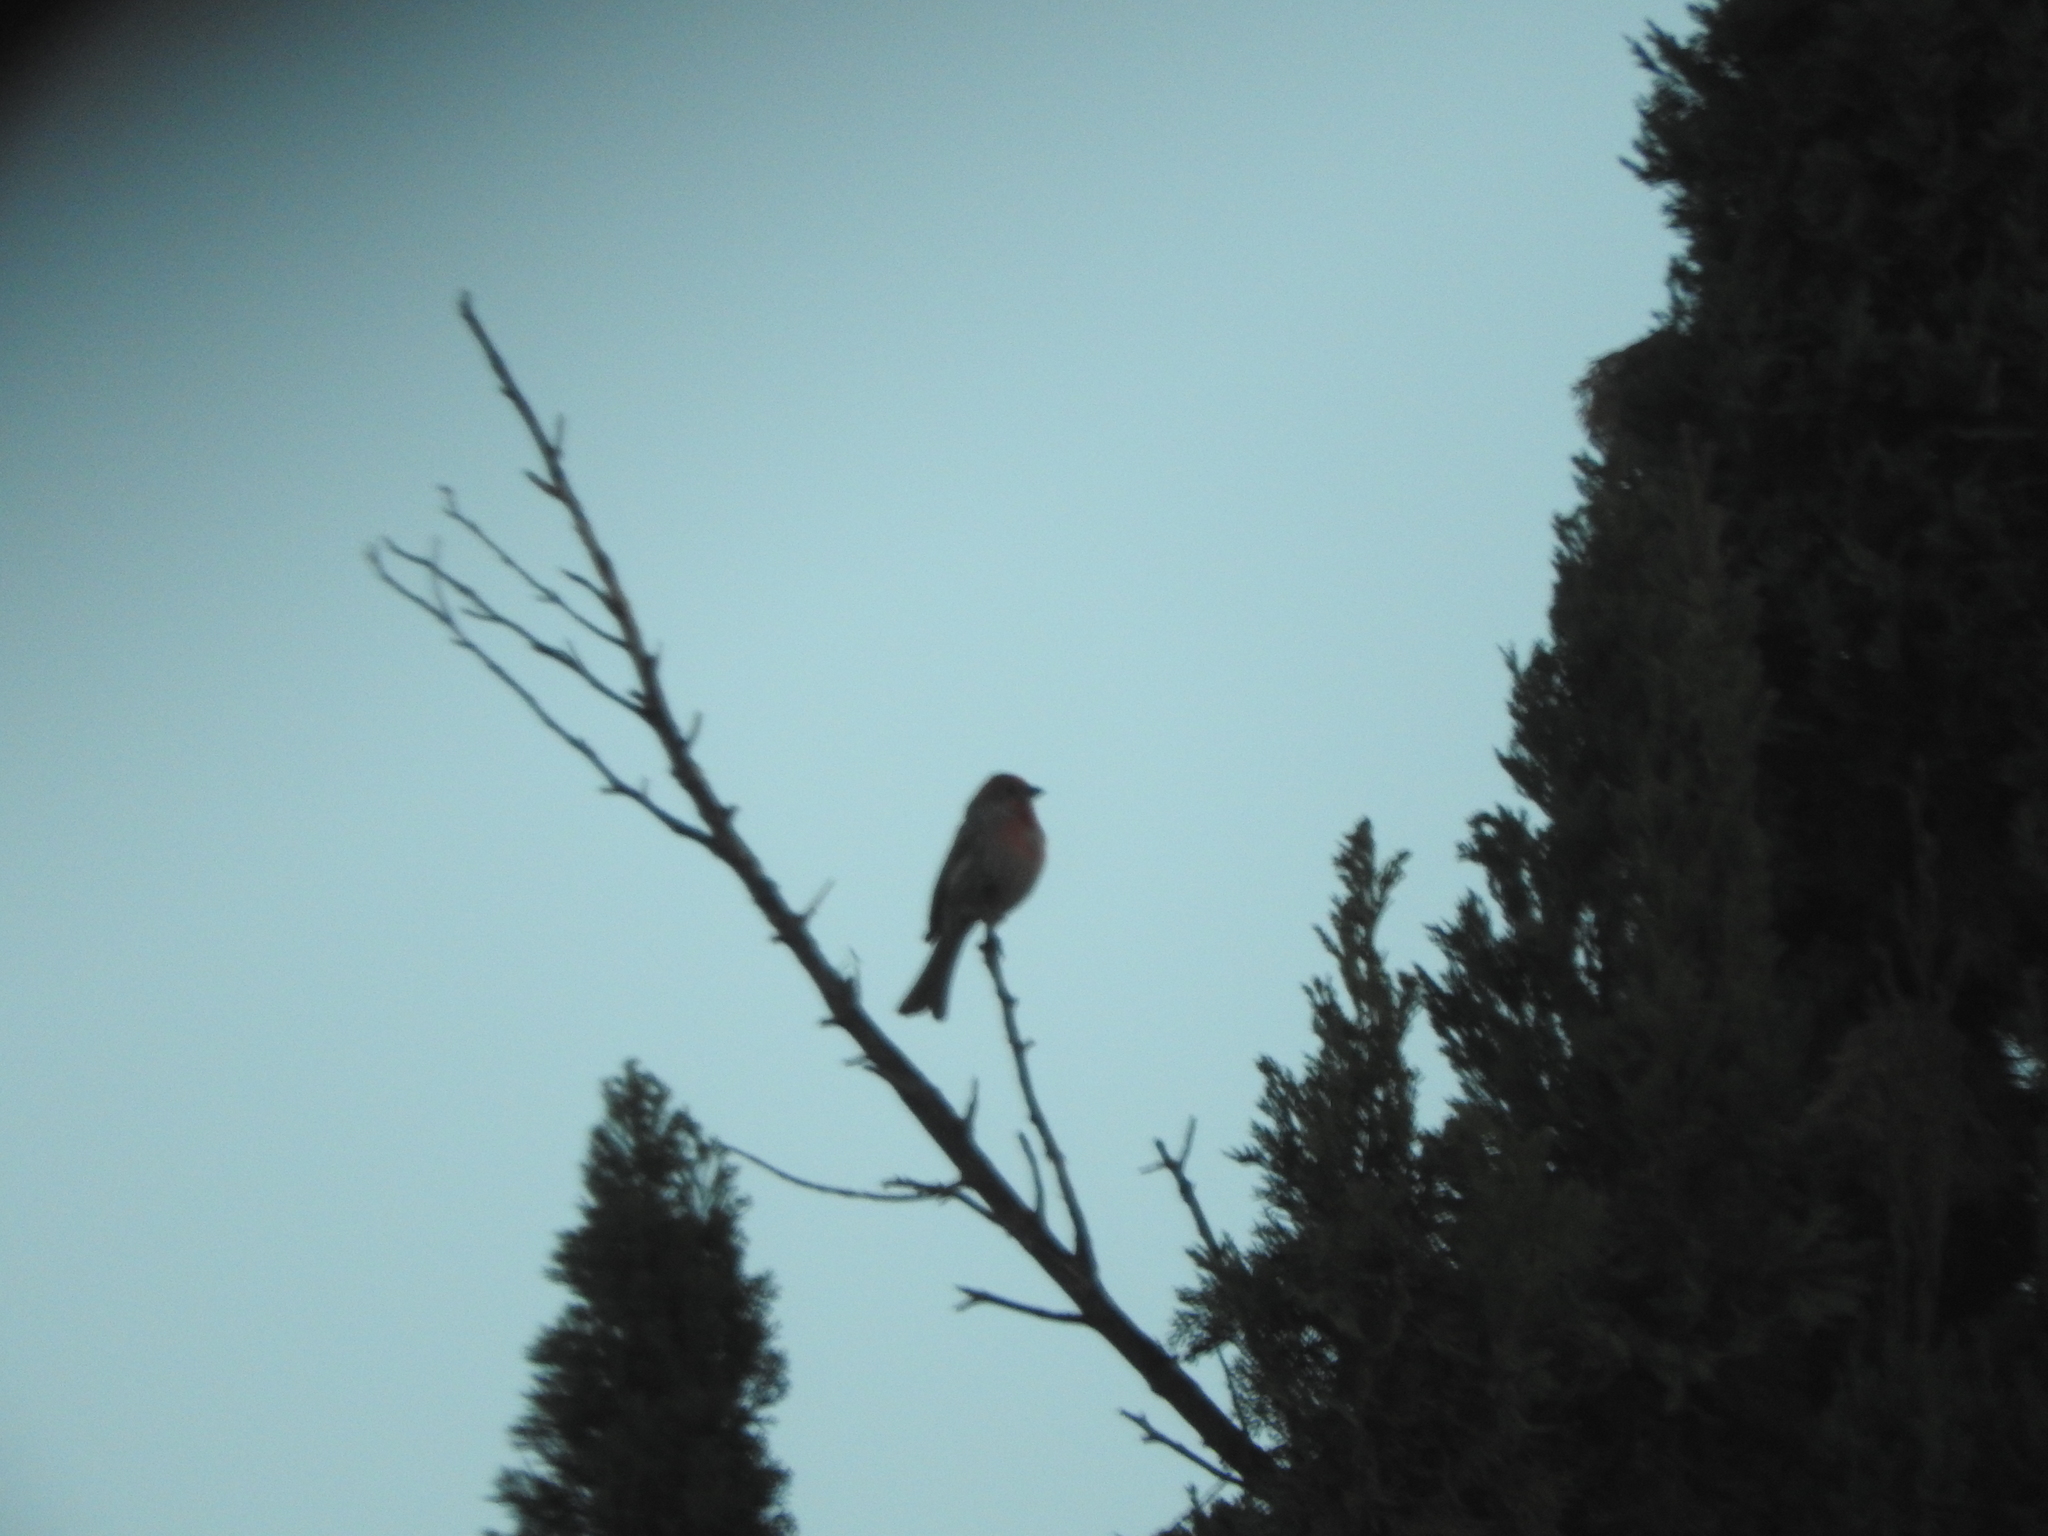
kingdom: Animalia
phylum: Chordata
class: Aves
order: Passeriformes
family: Fringillidae
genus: Haemorhous
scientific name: Haemorhous mexicanus
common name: House finch
